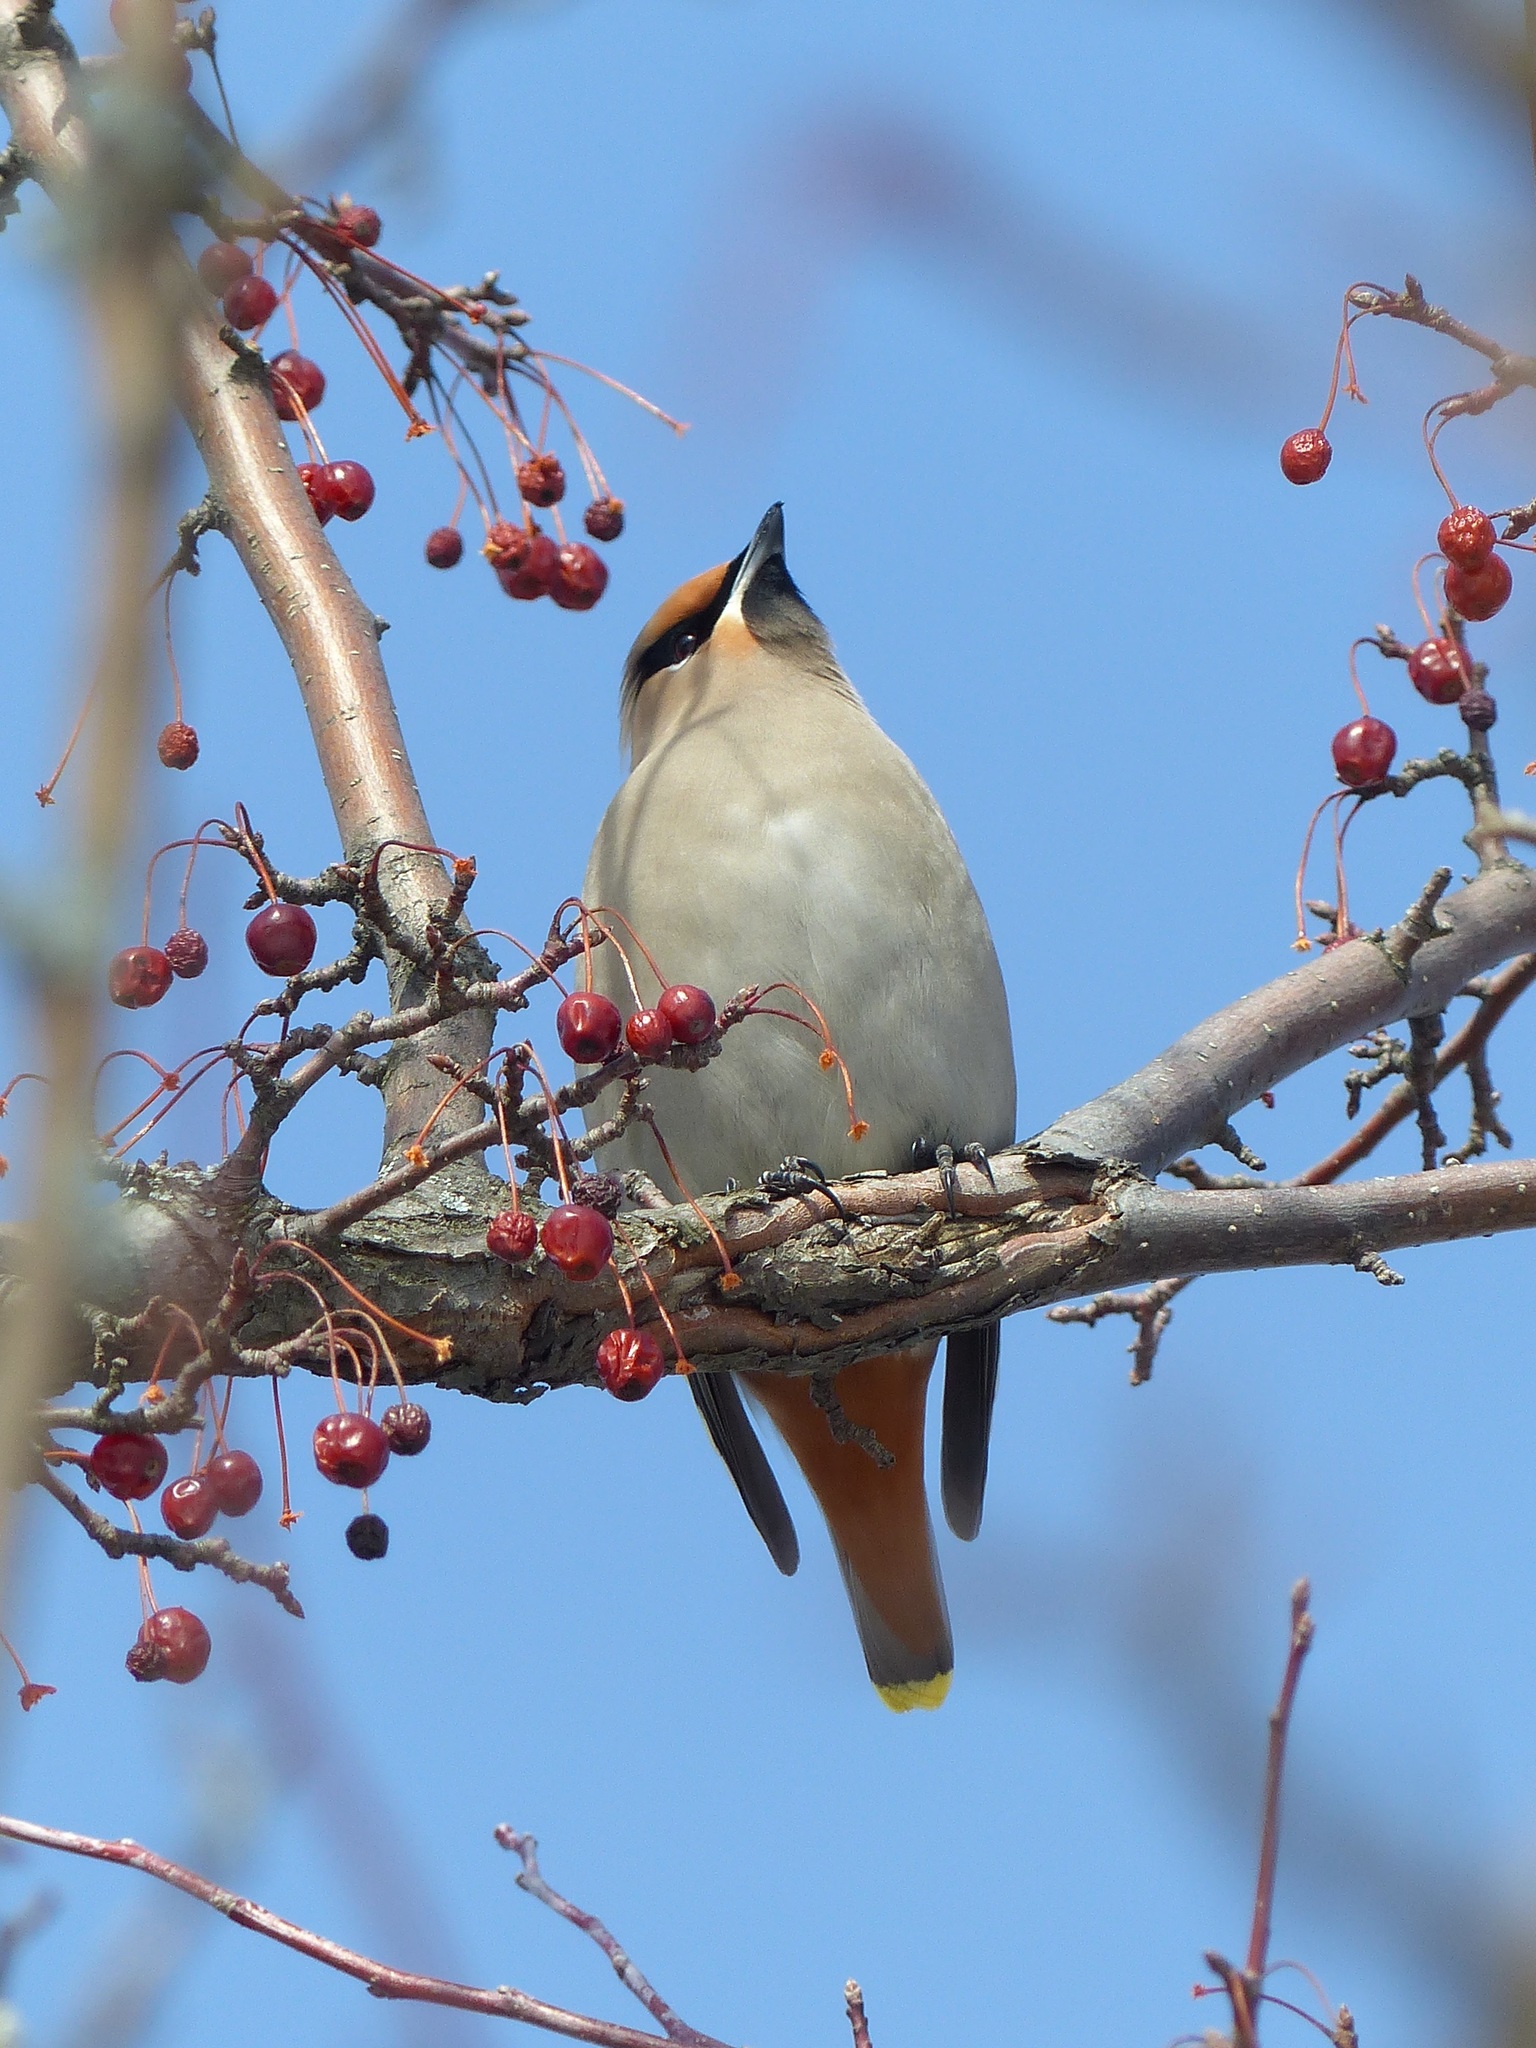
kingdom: Animalia
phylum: Chordata
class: Aves
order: Passeriformes
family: Bombycillidae
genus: Bombycilla
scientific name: Bombycilla garrulus
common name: Bohemian waxwing
